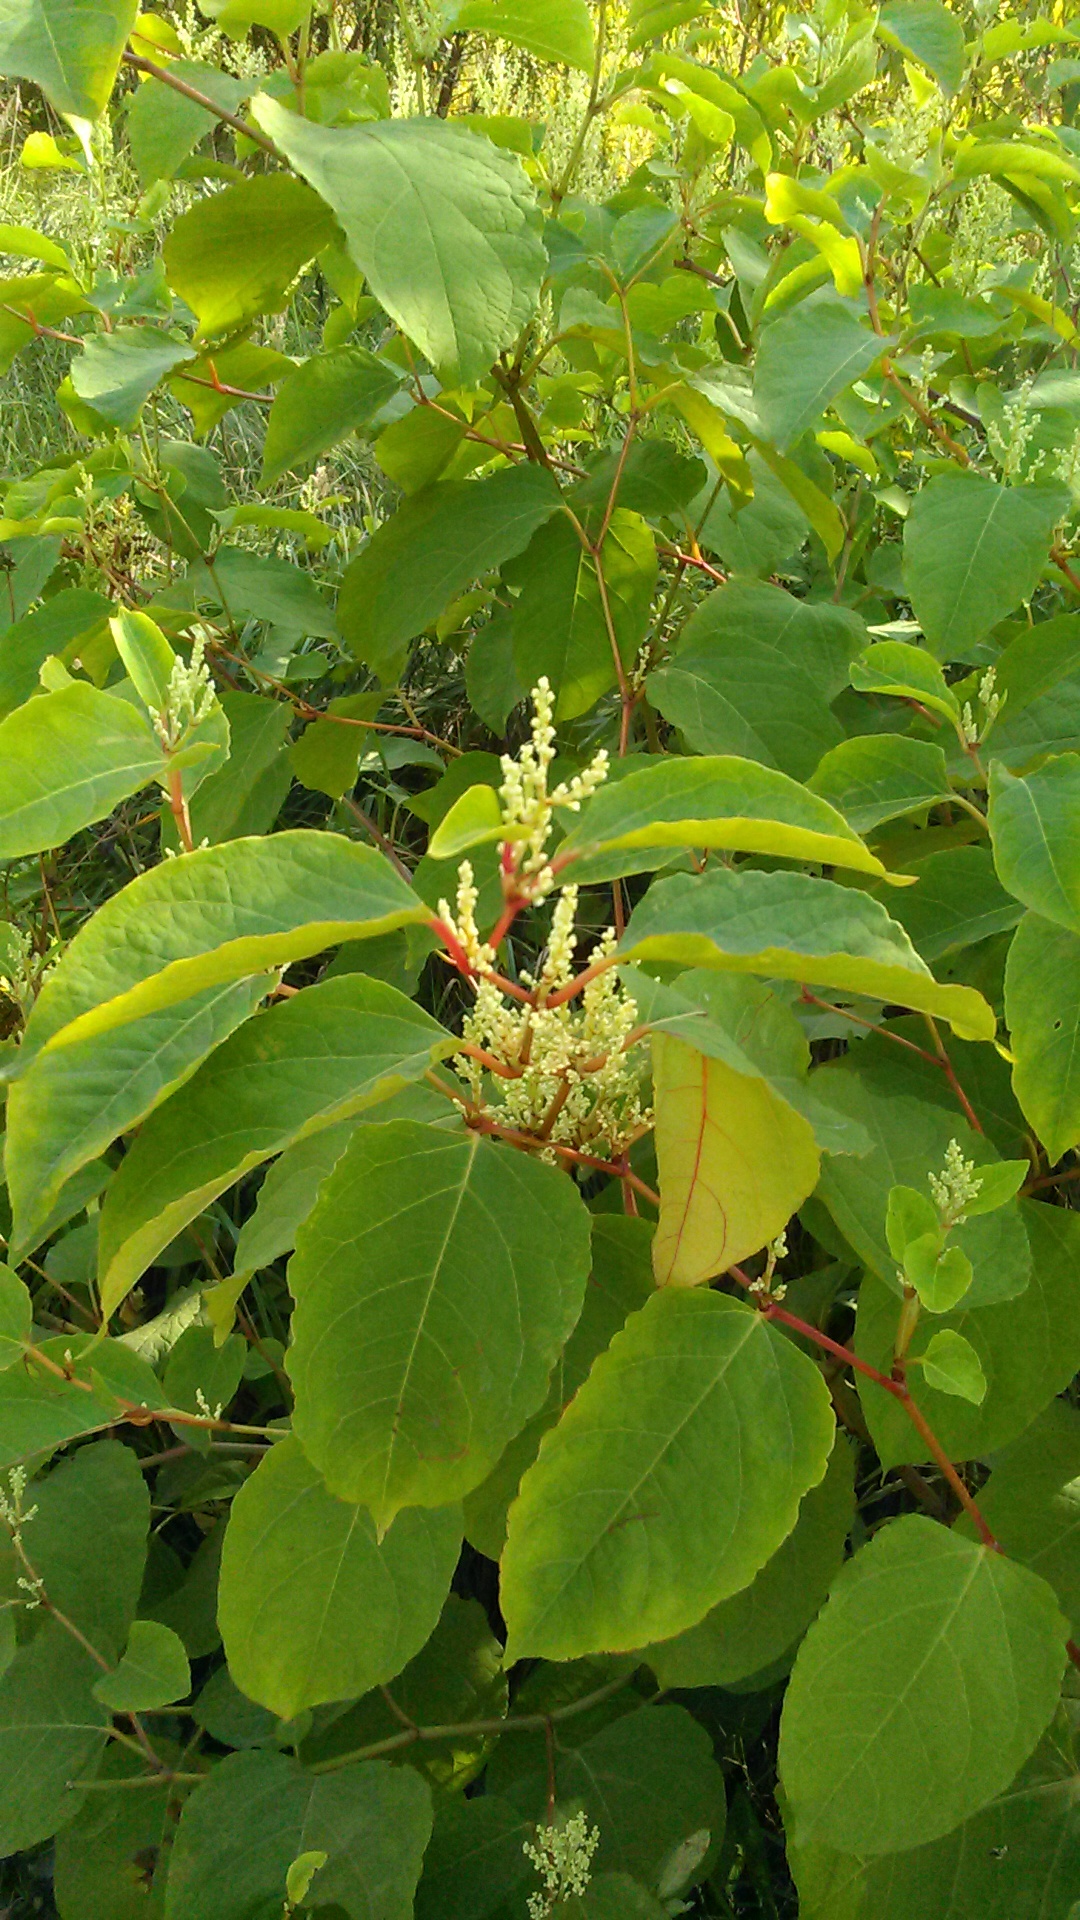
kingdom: Plantae
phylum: Tracheophyta
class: Magnoliopsida
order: Caryophyllales
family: Polygonaceae
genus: Reynoutria
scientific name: Reynoutria bohemica
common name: Bohemian knotweed
